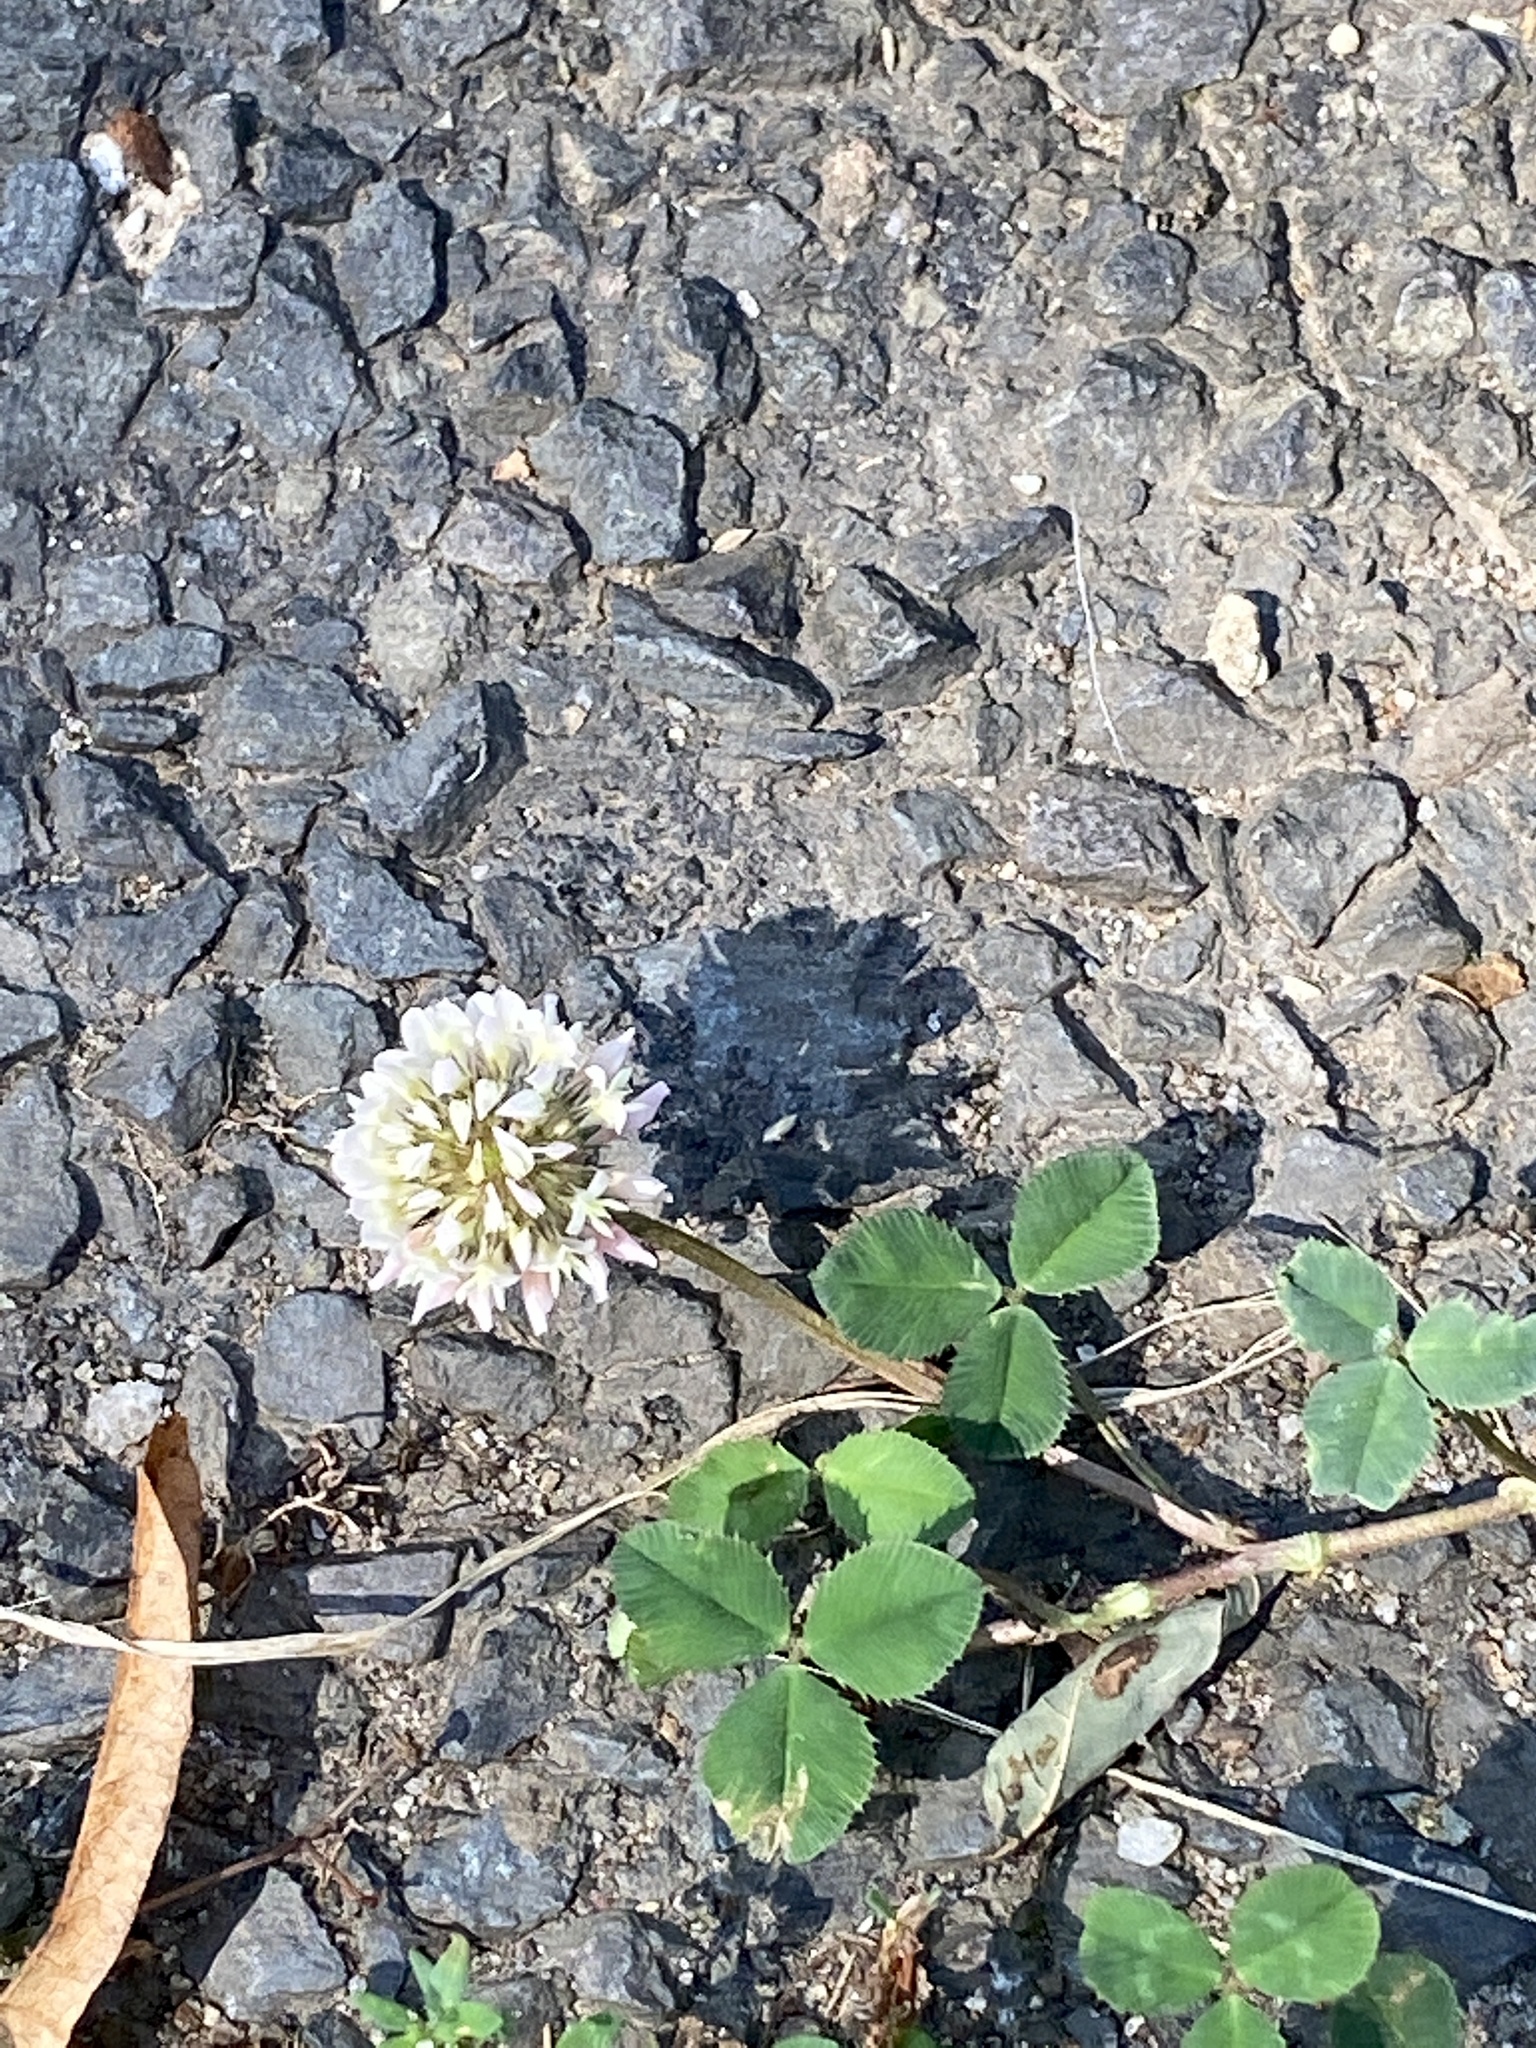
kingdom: Plantae
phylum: Tracheophyta
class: Magnoliopsida
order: Fabales
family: Fabaceae
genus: Trifolium
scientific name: Trifolium repens
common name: White clover
